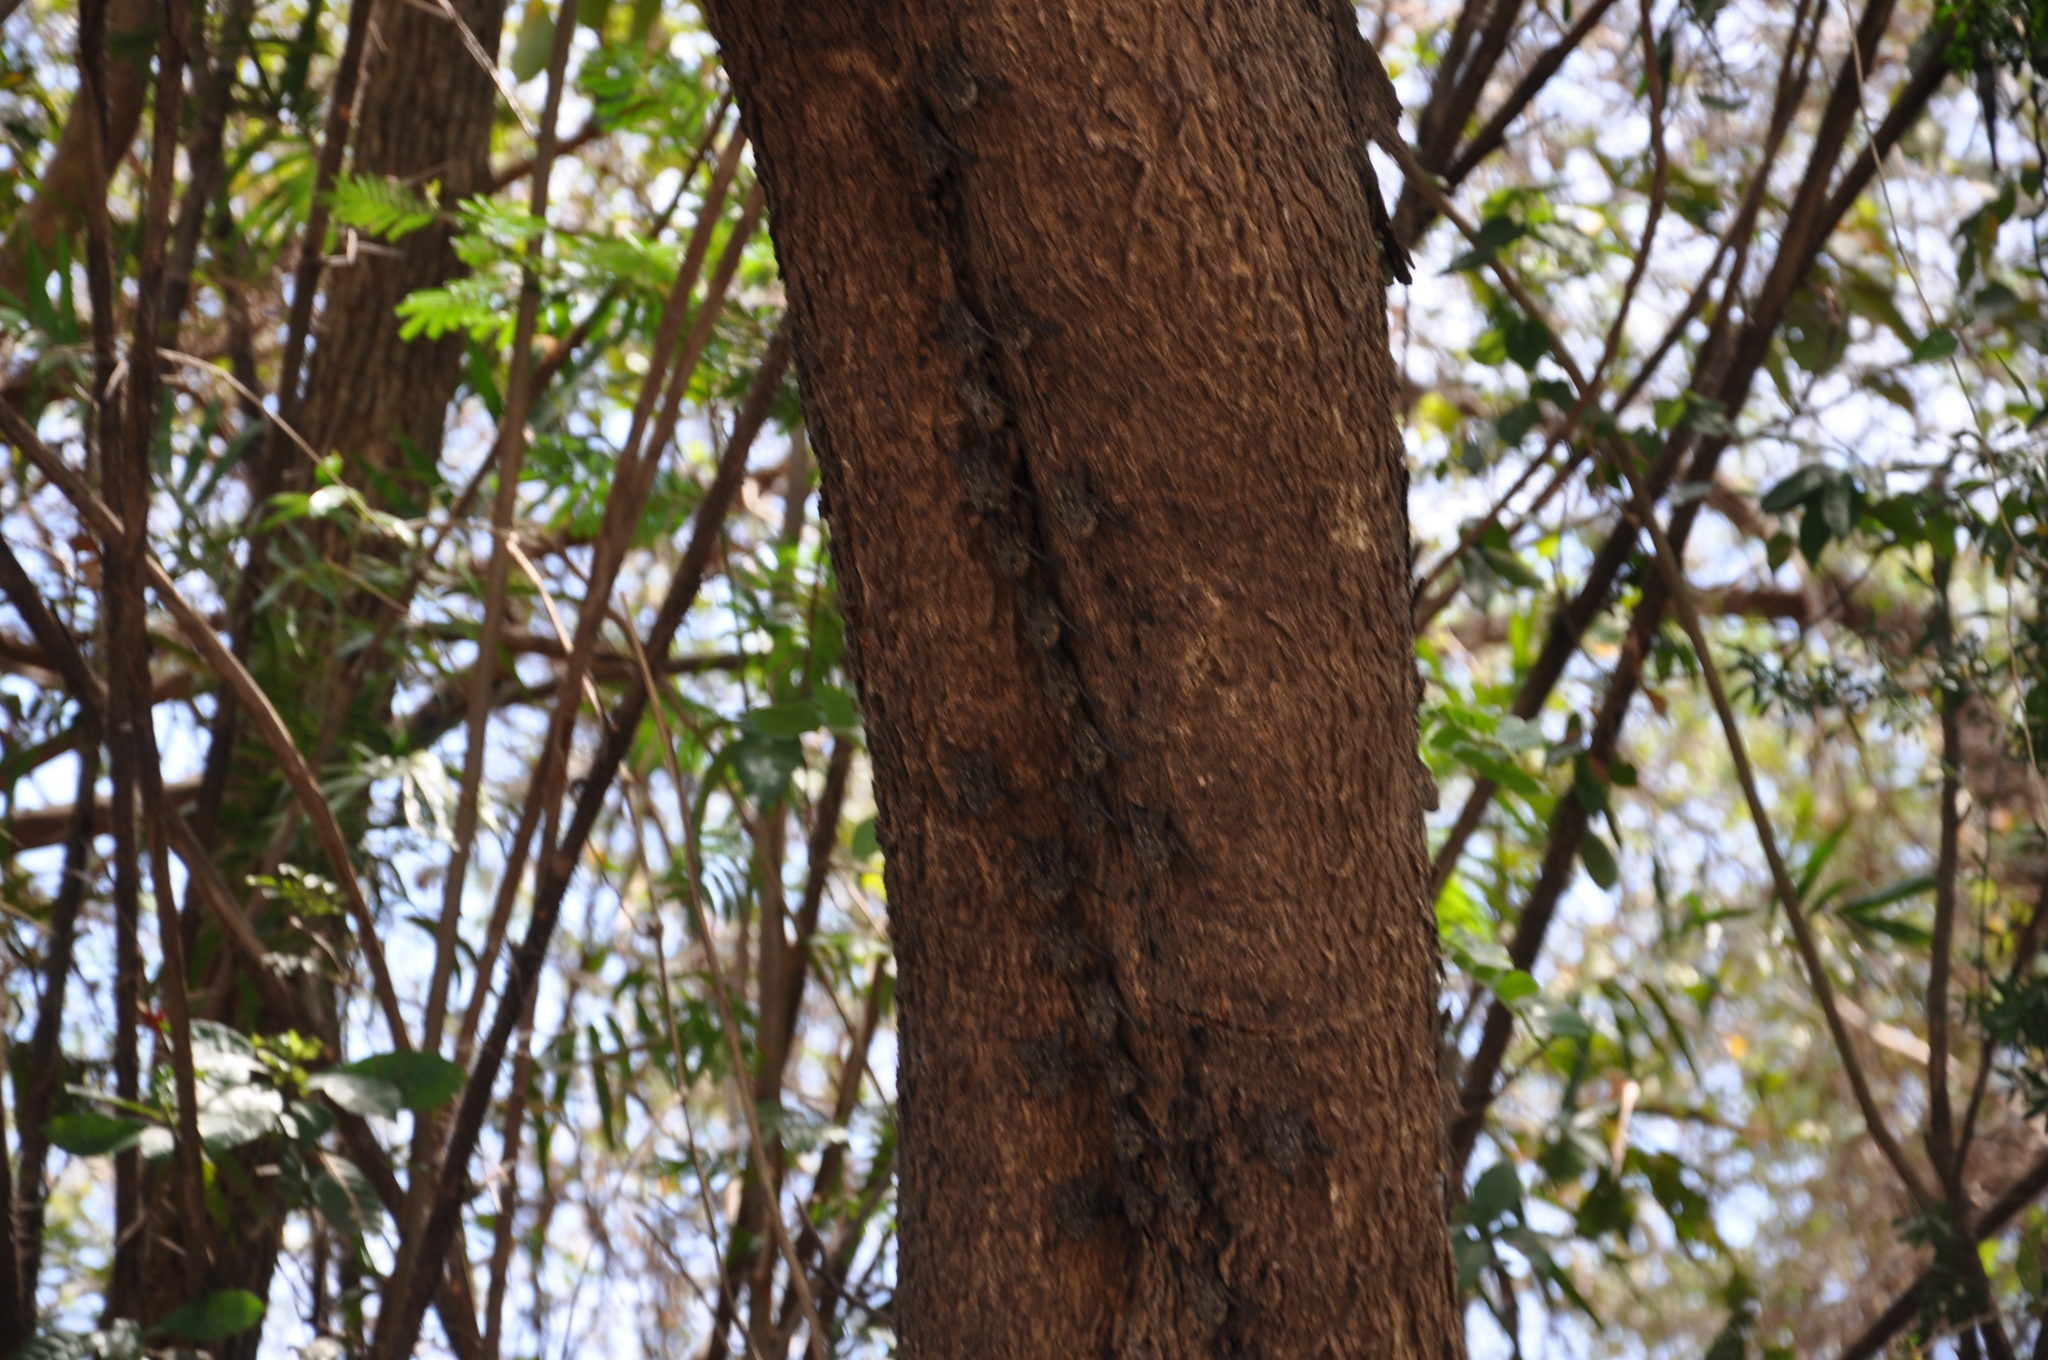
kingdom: Animalia
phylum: Chordata
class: Mammalia
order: Chiroptera
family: Emballonuridae
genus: Rhynchonycteris
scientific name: Rhynchonycteris naso
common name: Proboscis bat
